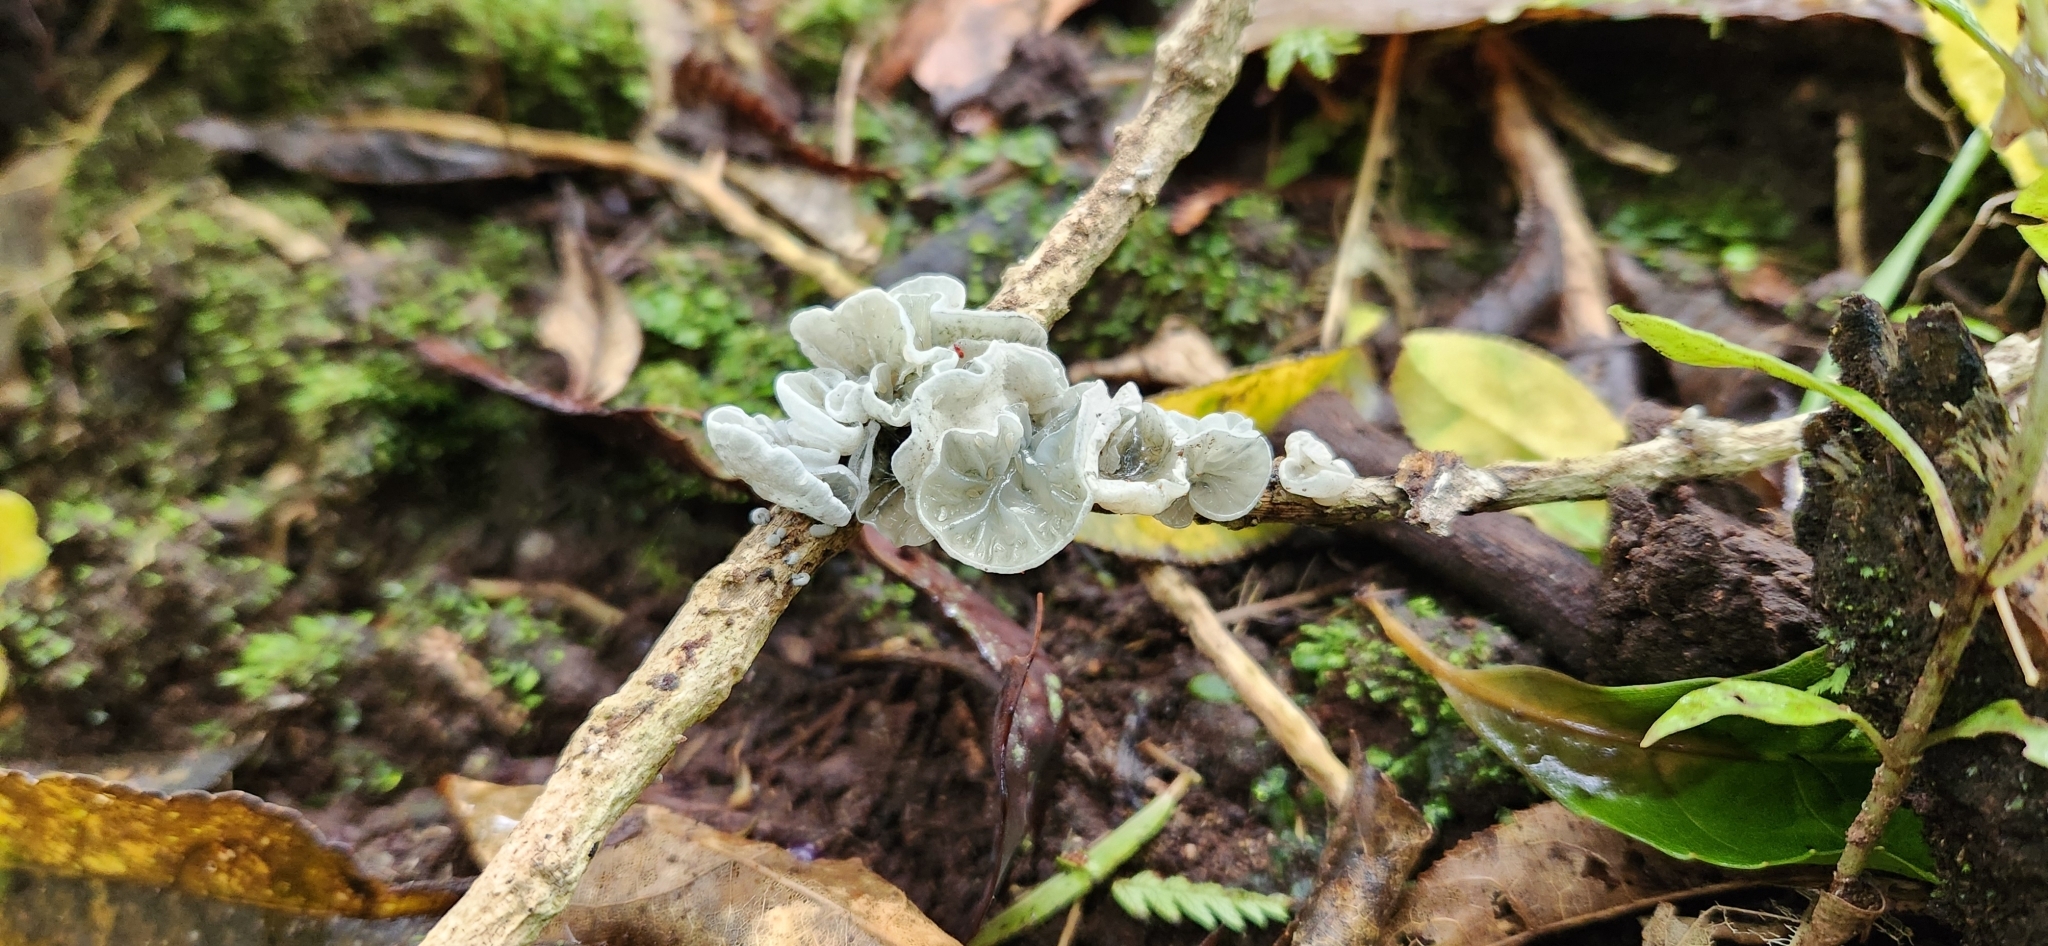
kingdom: Fungi
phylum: Basidiomycota
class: Agaricomycetes
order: Agaricales
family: Marasmiaceae
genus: Campanella
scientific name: Campanella tristis
